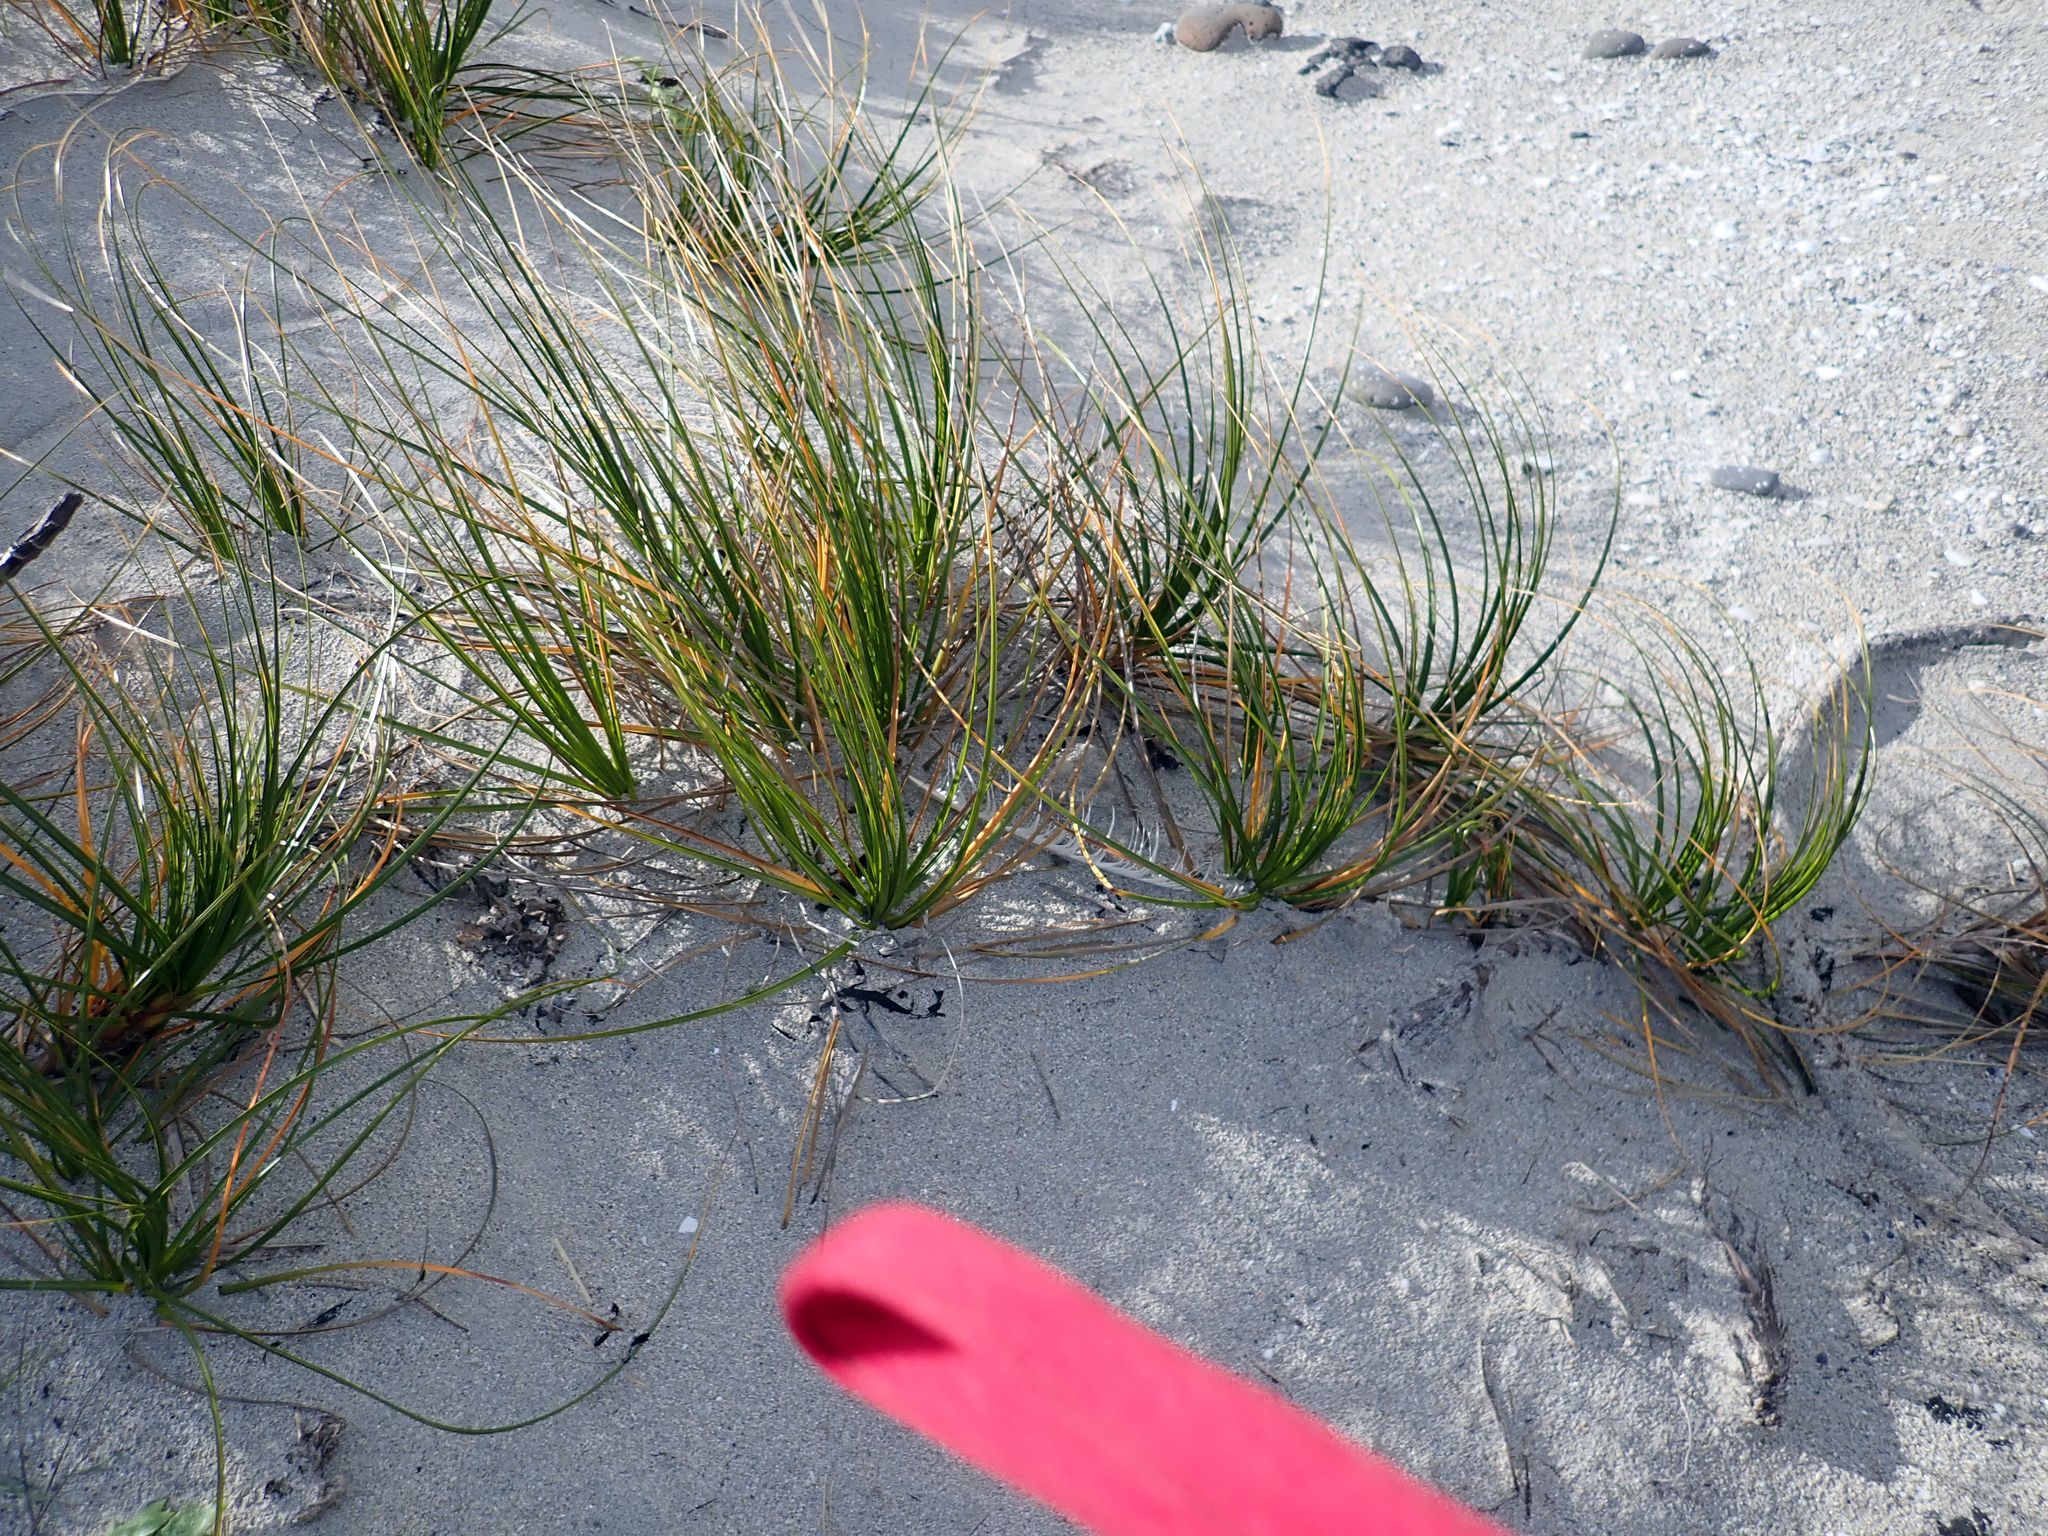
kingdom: Plantae
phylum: Tracheophyta
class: Liliopsida
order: Poales
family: Cyperaceae
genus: Ficinia
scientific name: Ficinia spiralis
